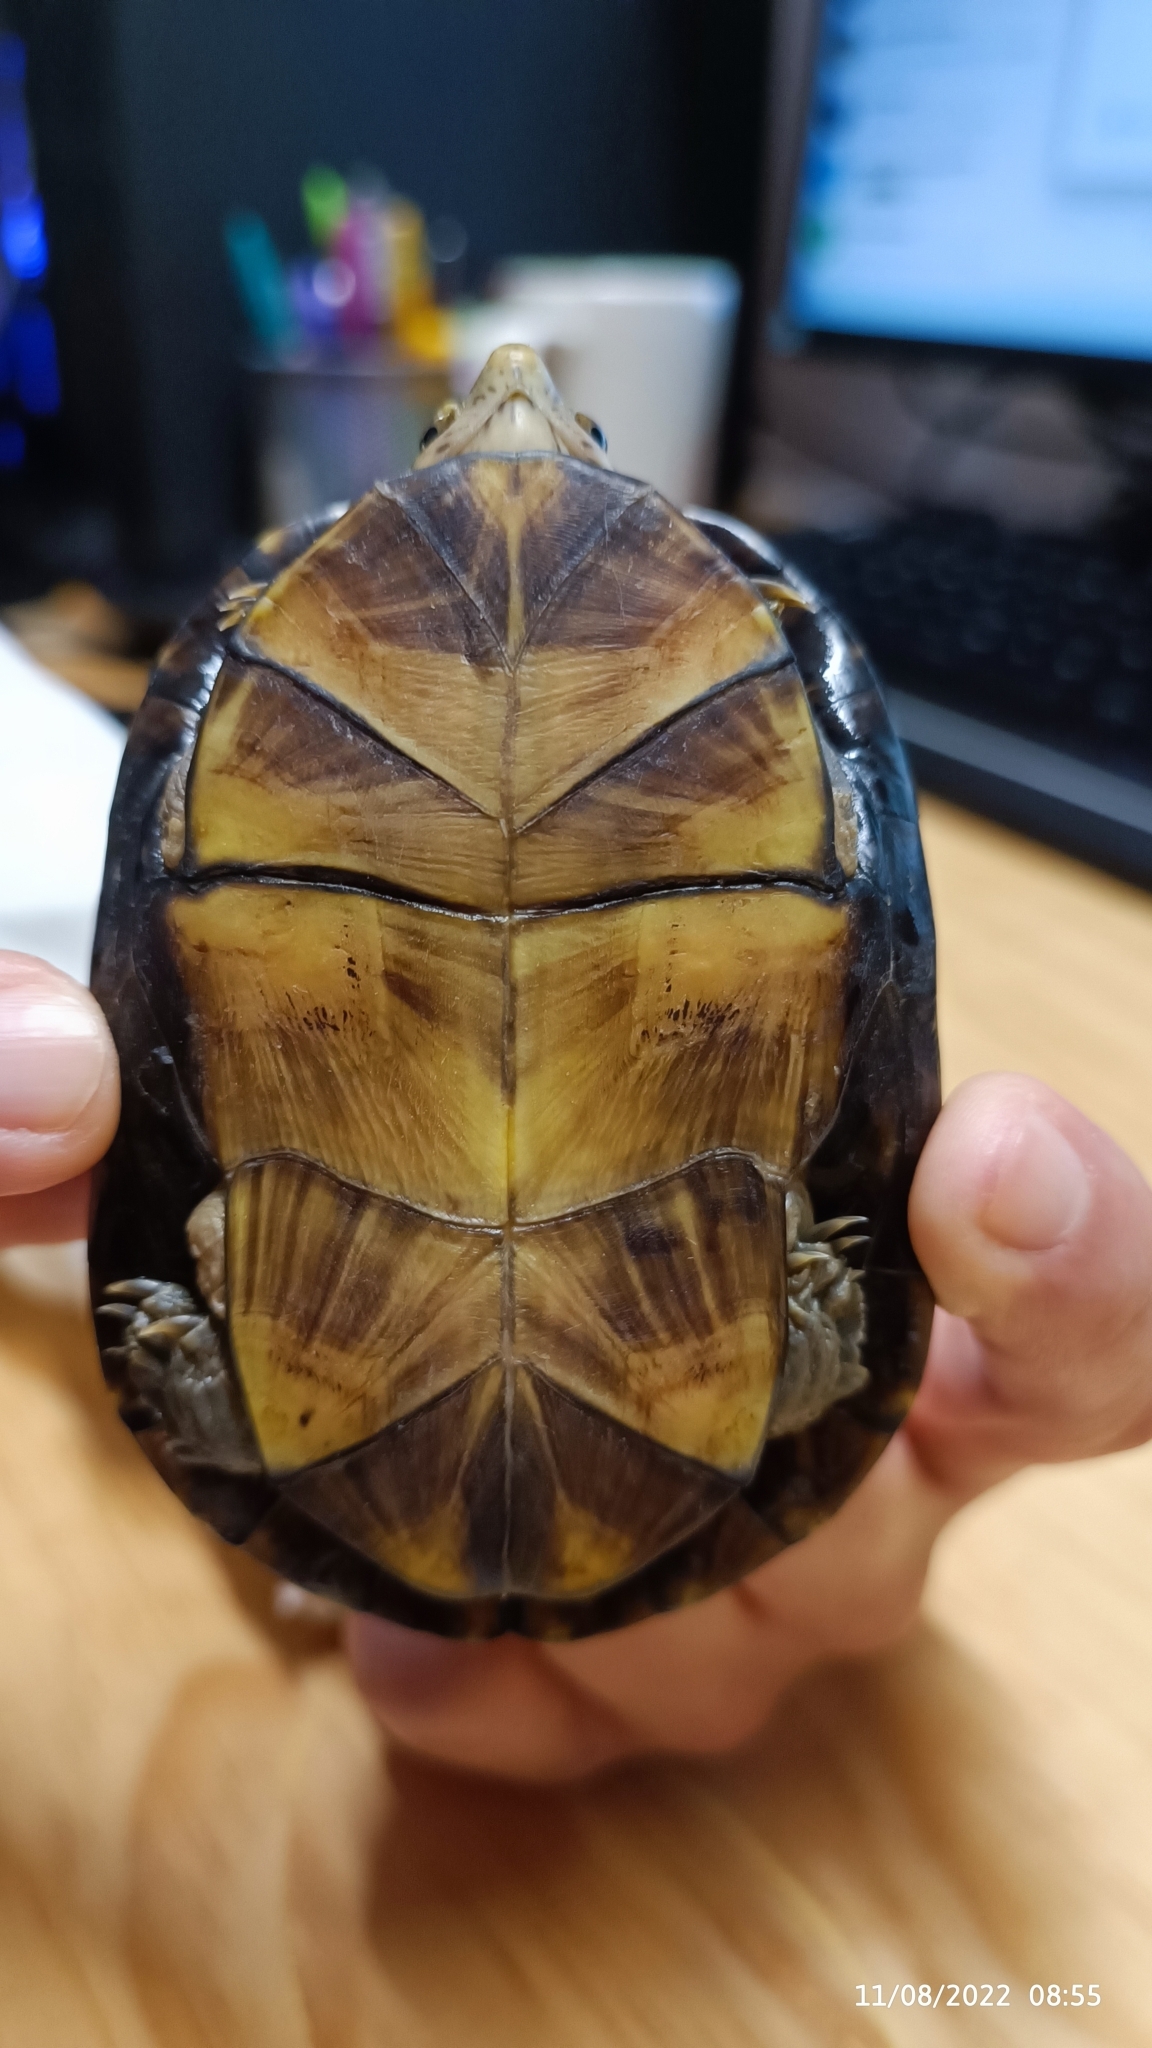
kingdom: Animalia
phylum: Chordata
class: Testudines
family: Kinosternidae
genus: Kinosternon
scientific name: Kinosternon integrum
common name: Mexican mud turtle
